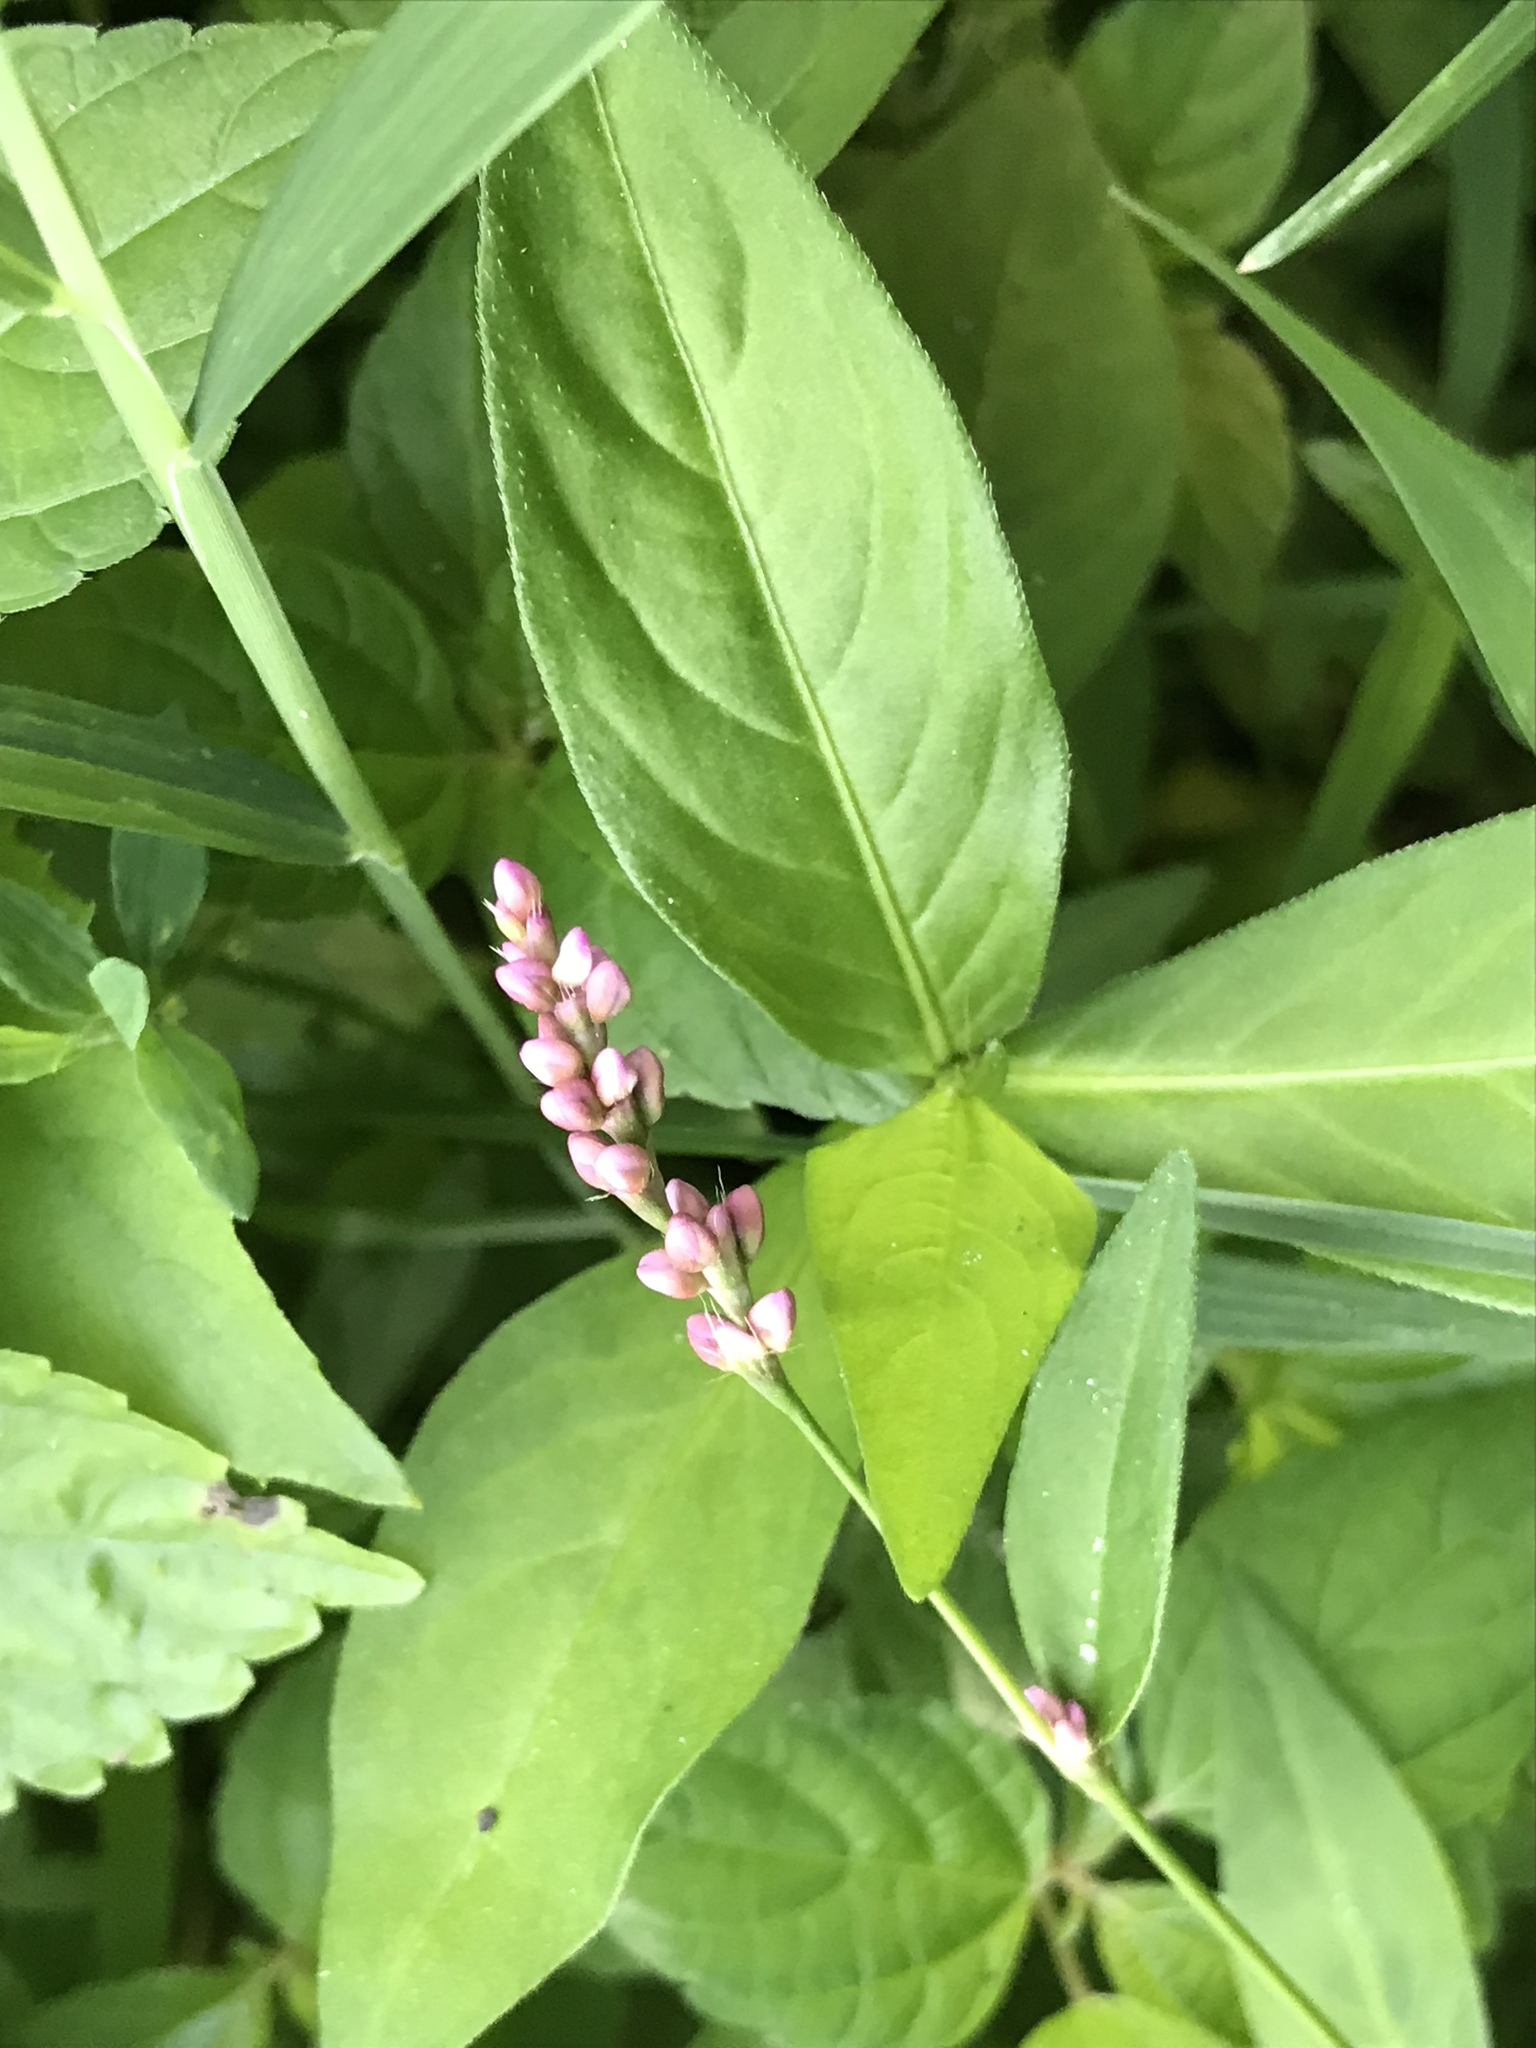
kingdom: Plantae
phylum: Tracheophyta
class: Magnoliopsida
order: Caryophyllales
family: Polygonaceae
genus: Persicaria
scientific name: Persicaria longiseta
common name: Bristly lady's-thumb
